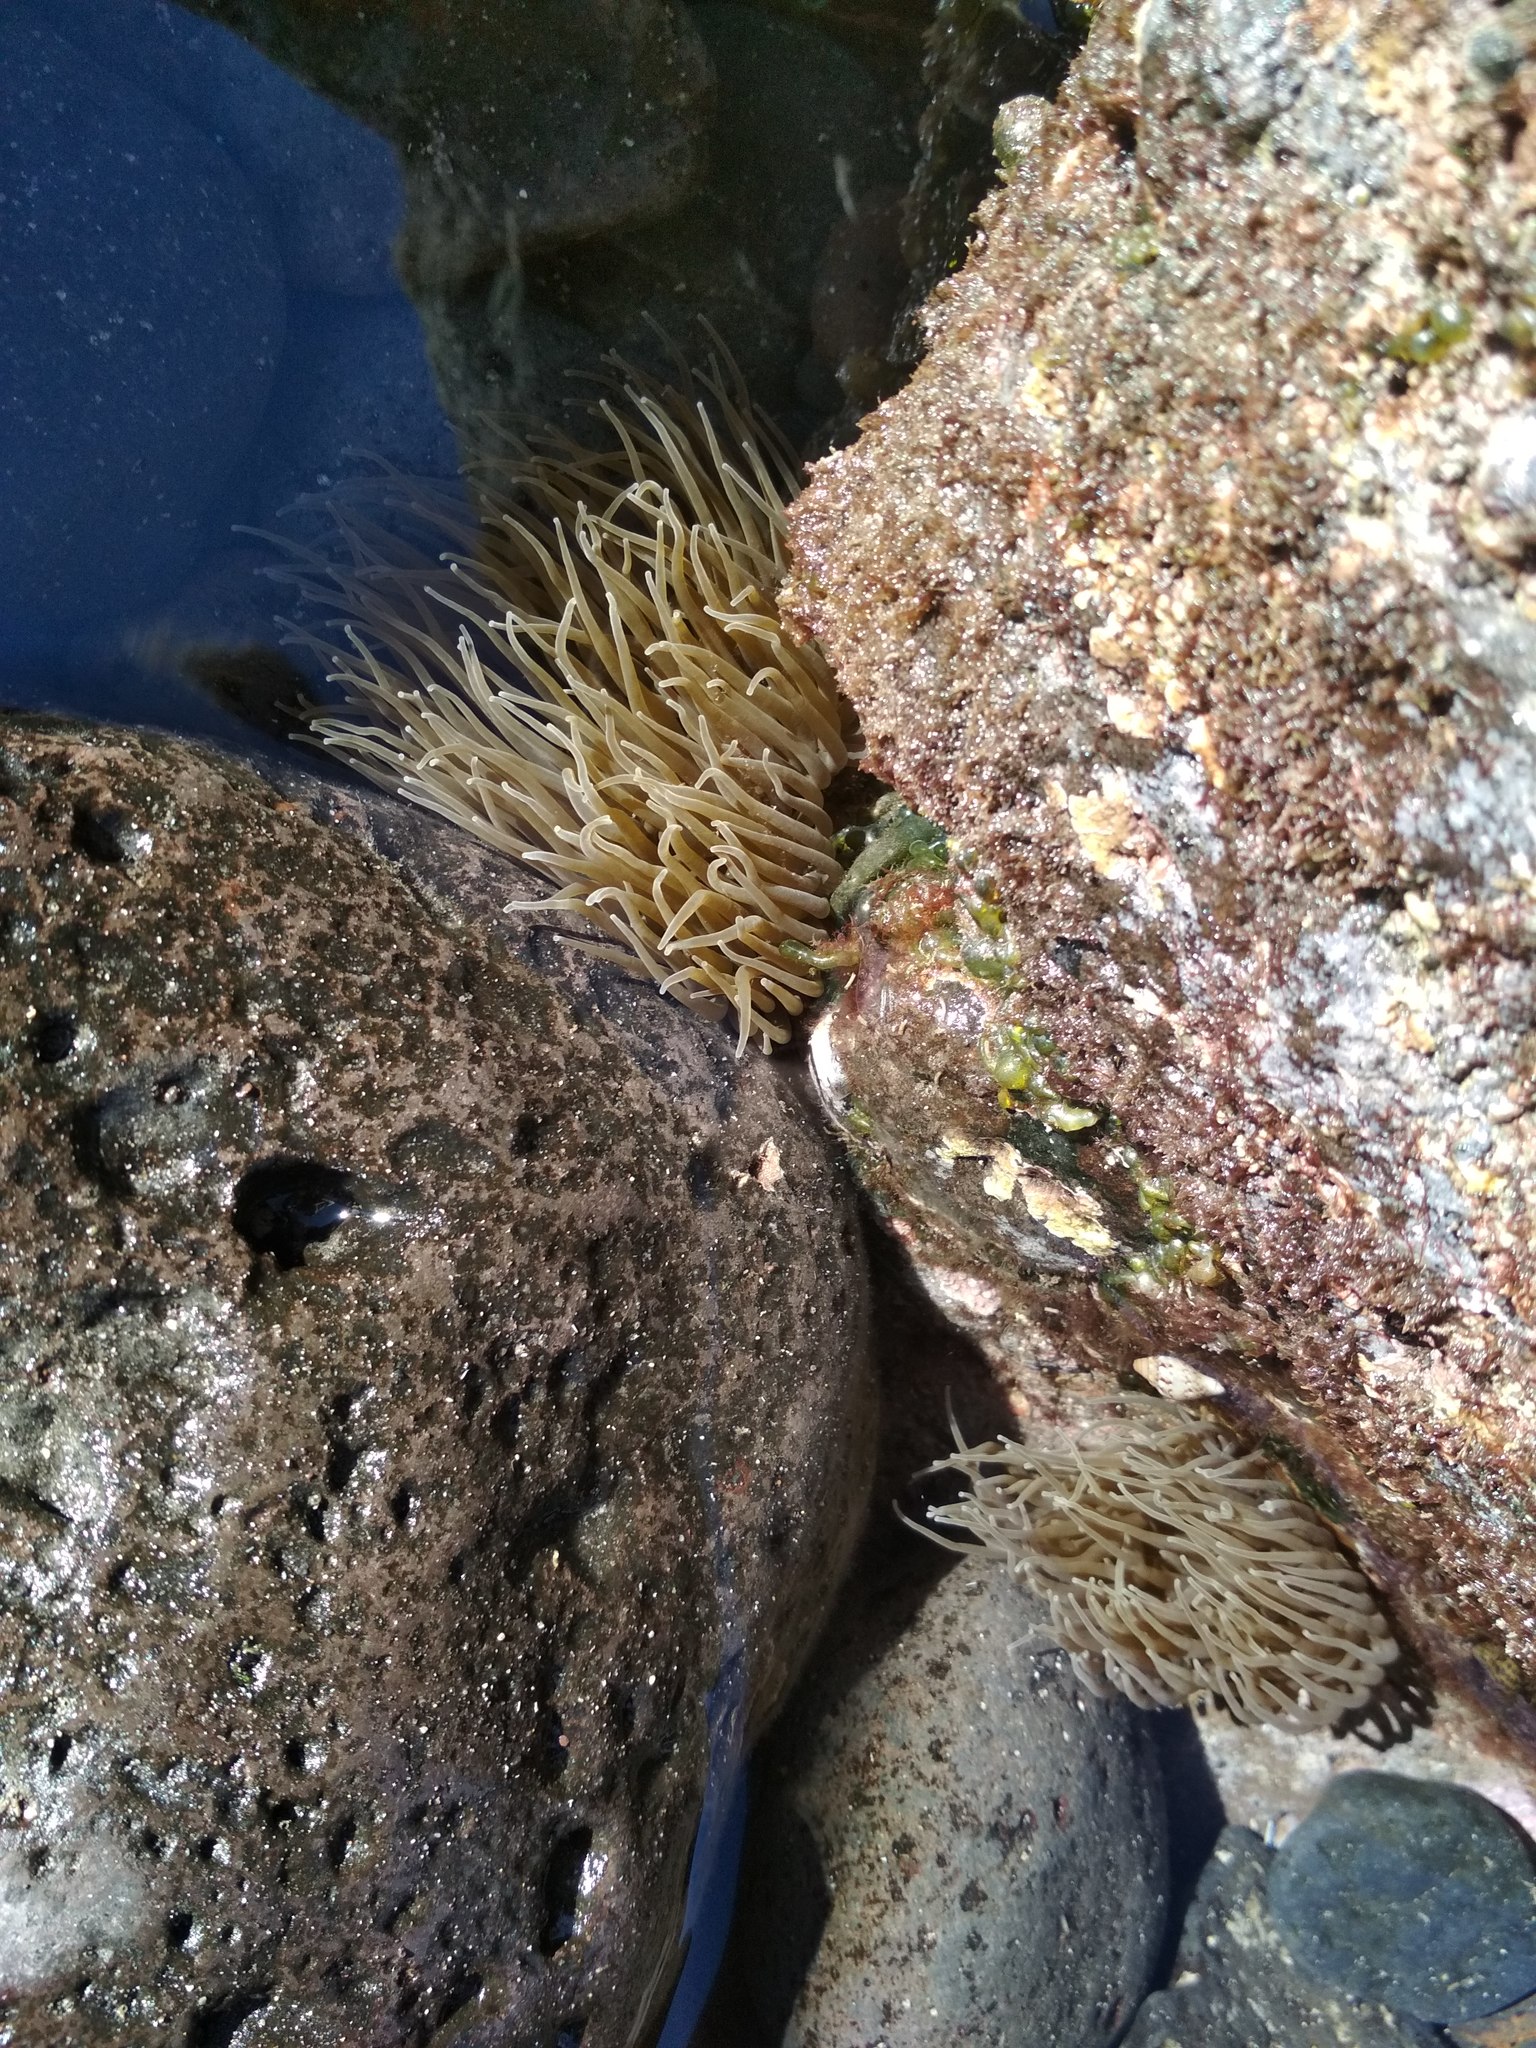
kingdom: Animalia
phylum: Cnidaria
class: Anthozoa
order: Actiniaria
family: Actiniidae
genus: Anemonia
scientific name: Anemonia viridis
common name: Snakelocks anemone
